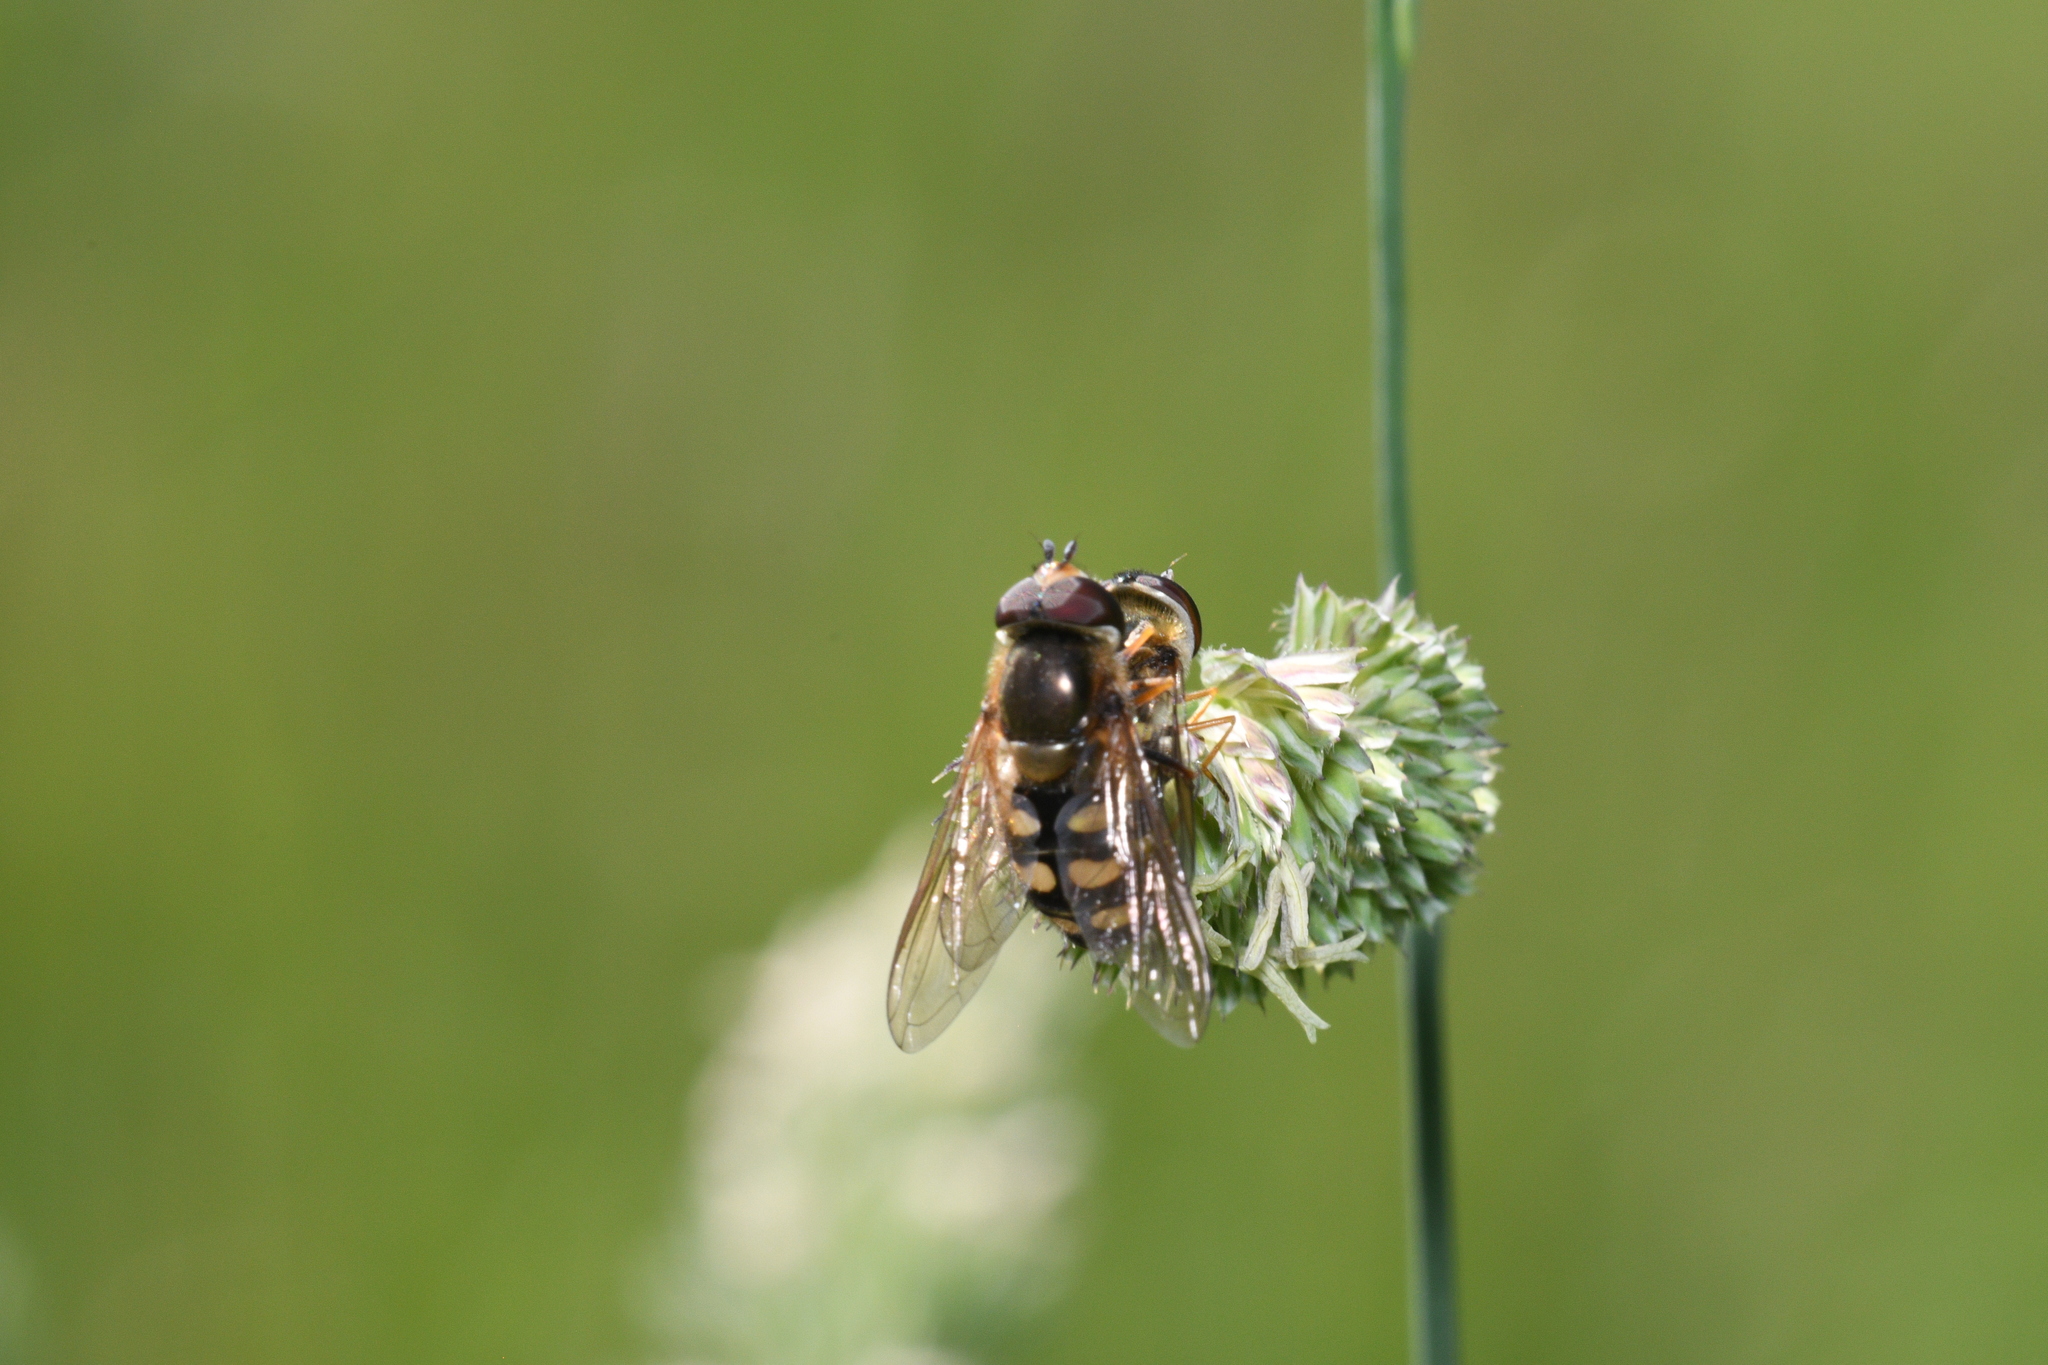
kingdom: Animalia
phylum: Arthropoda
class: Insecta
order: Diptera
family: Syrphidae
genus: Eupeodes
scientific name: Eupeodes
